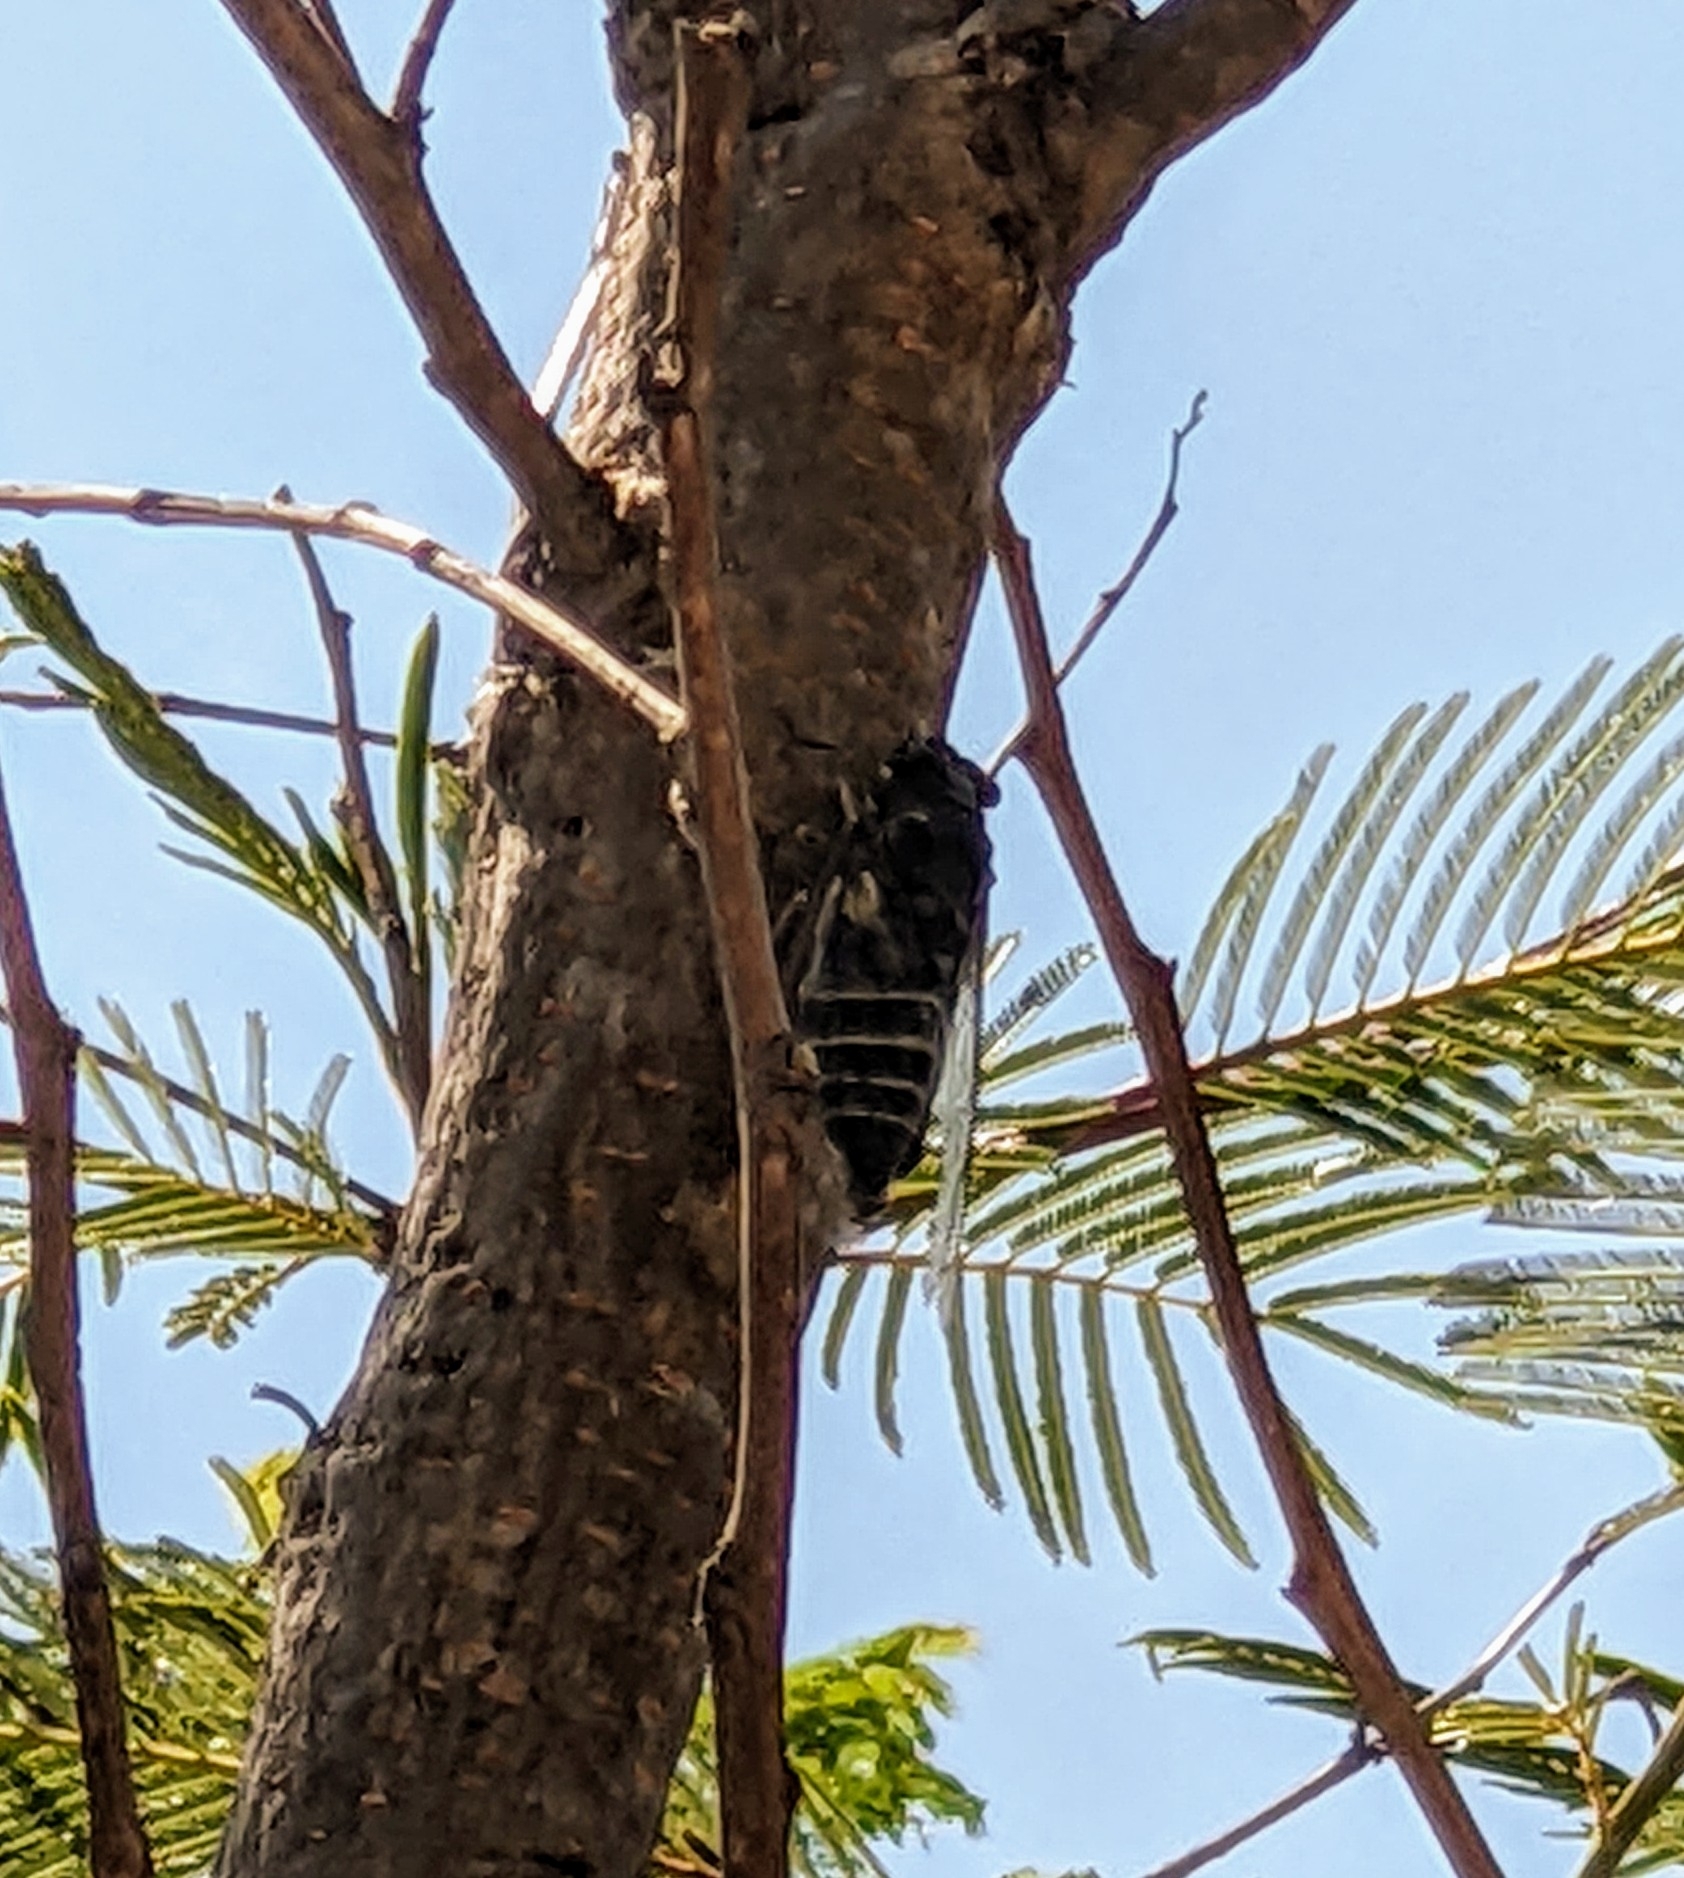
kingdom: Animalia
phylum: Arthropoda
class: Insecta
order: Hemiptera
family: Cicadidae
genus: Quesada
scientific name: Quesada gigas
